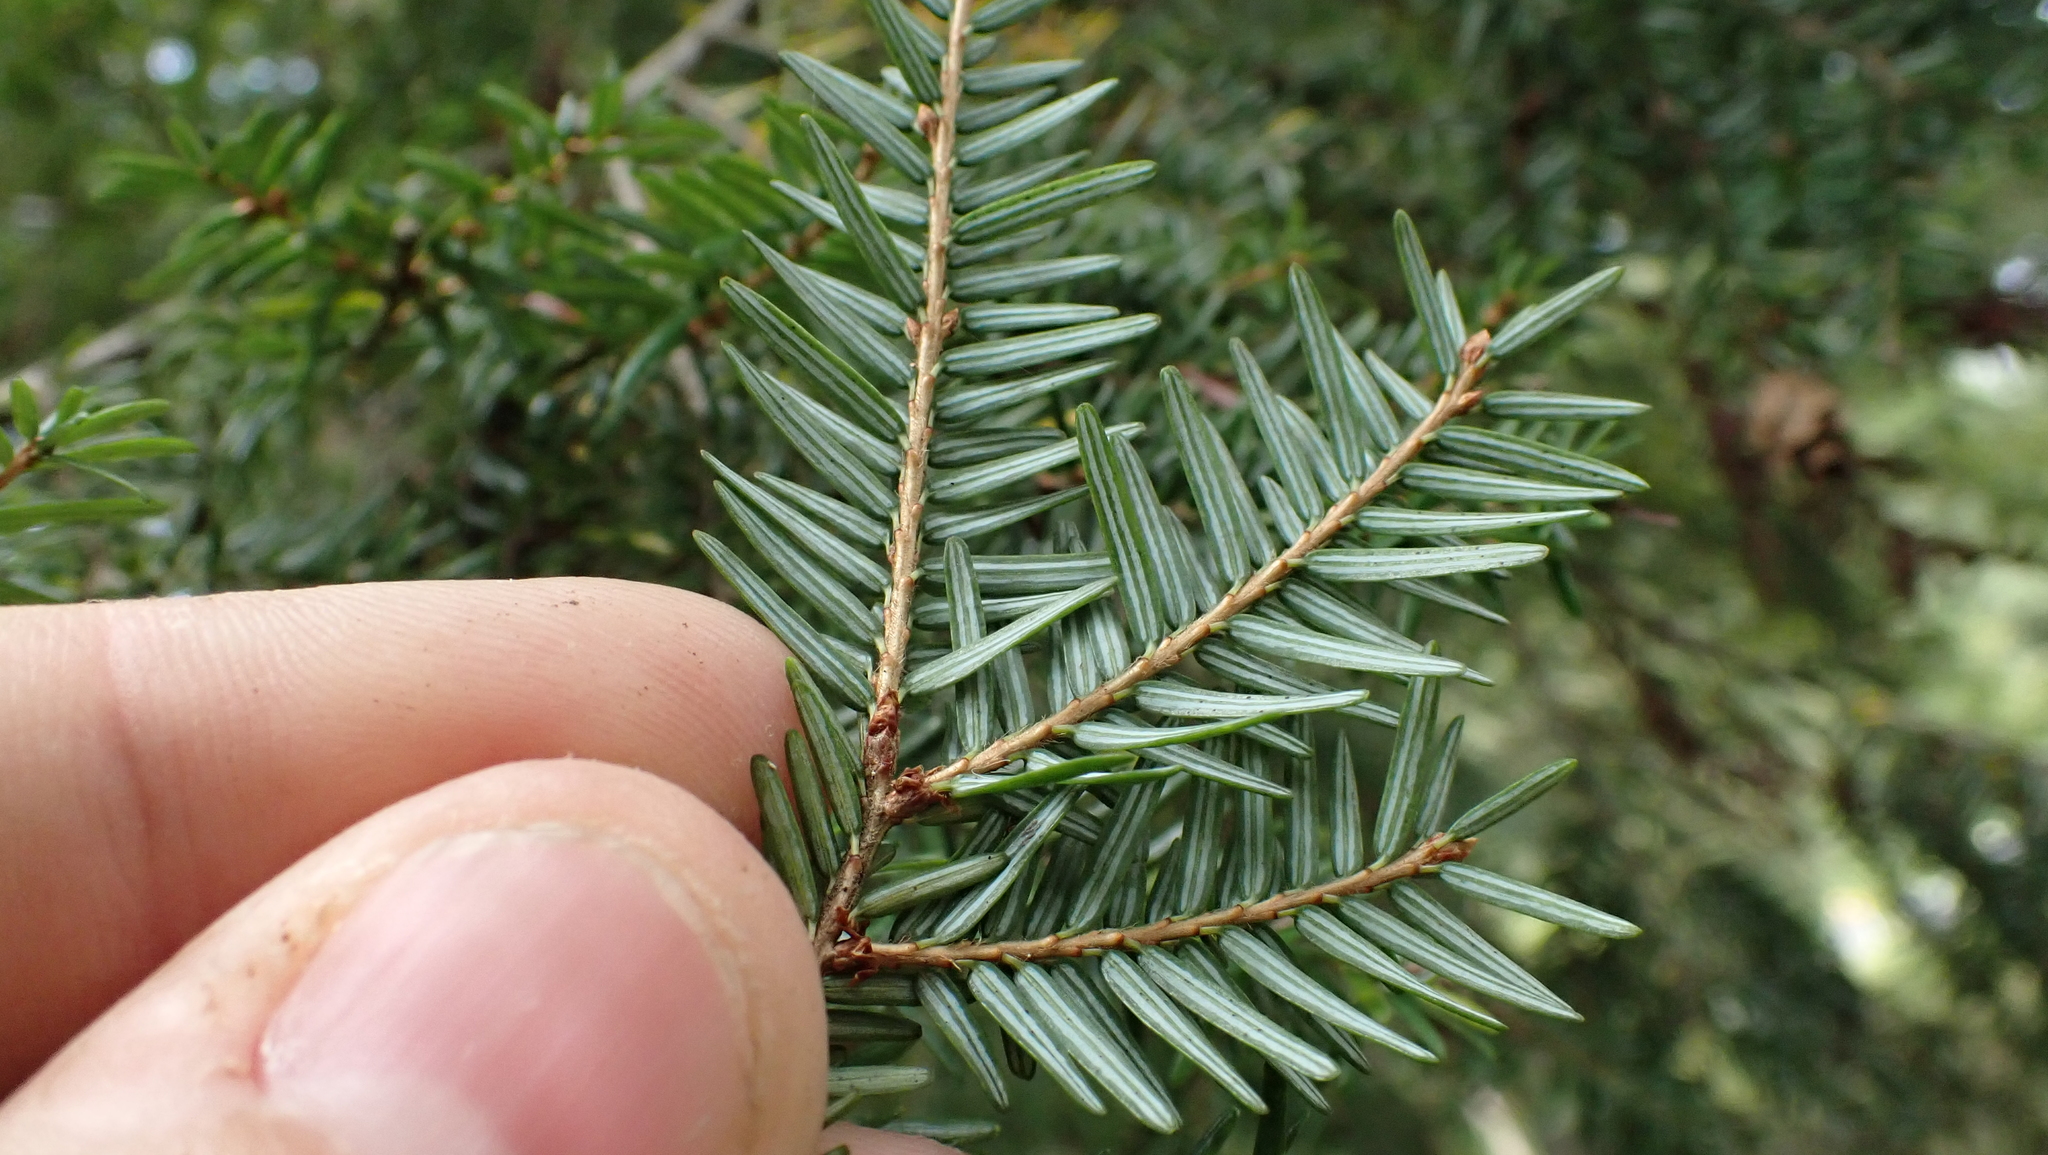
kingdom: Plantae
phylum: Tracheophyta
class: Pinopsida
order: Pinales
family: Pinaceae
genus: Tsuga
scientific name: Tsuga canadensis
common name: Eastern hemlock
